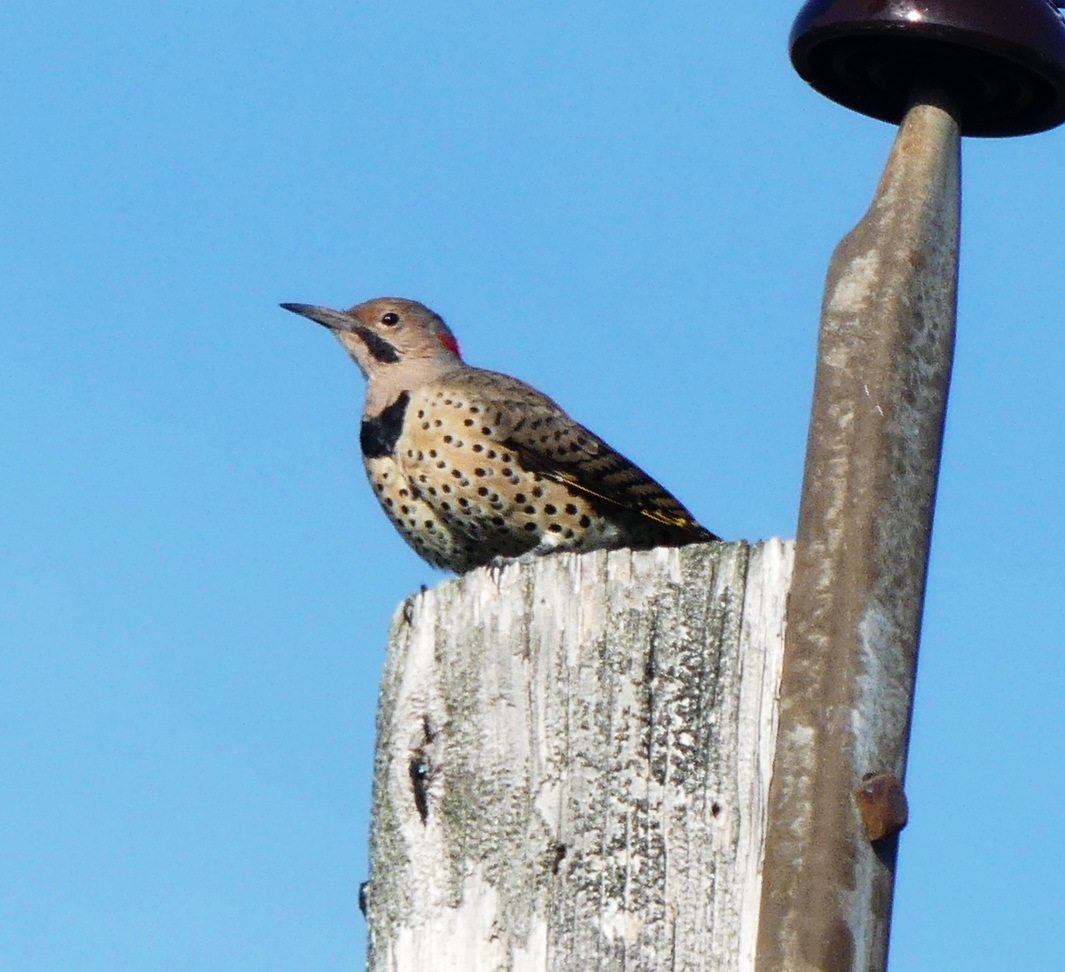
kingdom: Animalia
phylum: Chordata
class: Aves
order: Piciformes
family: Picidae
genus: Colaptes
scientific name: Colaptes auratus
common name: Northern flicker
